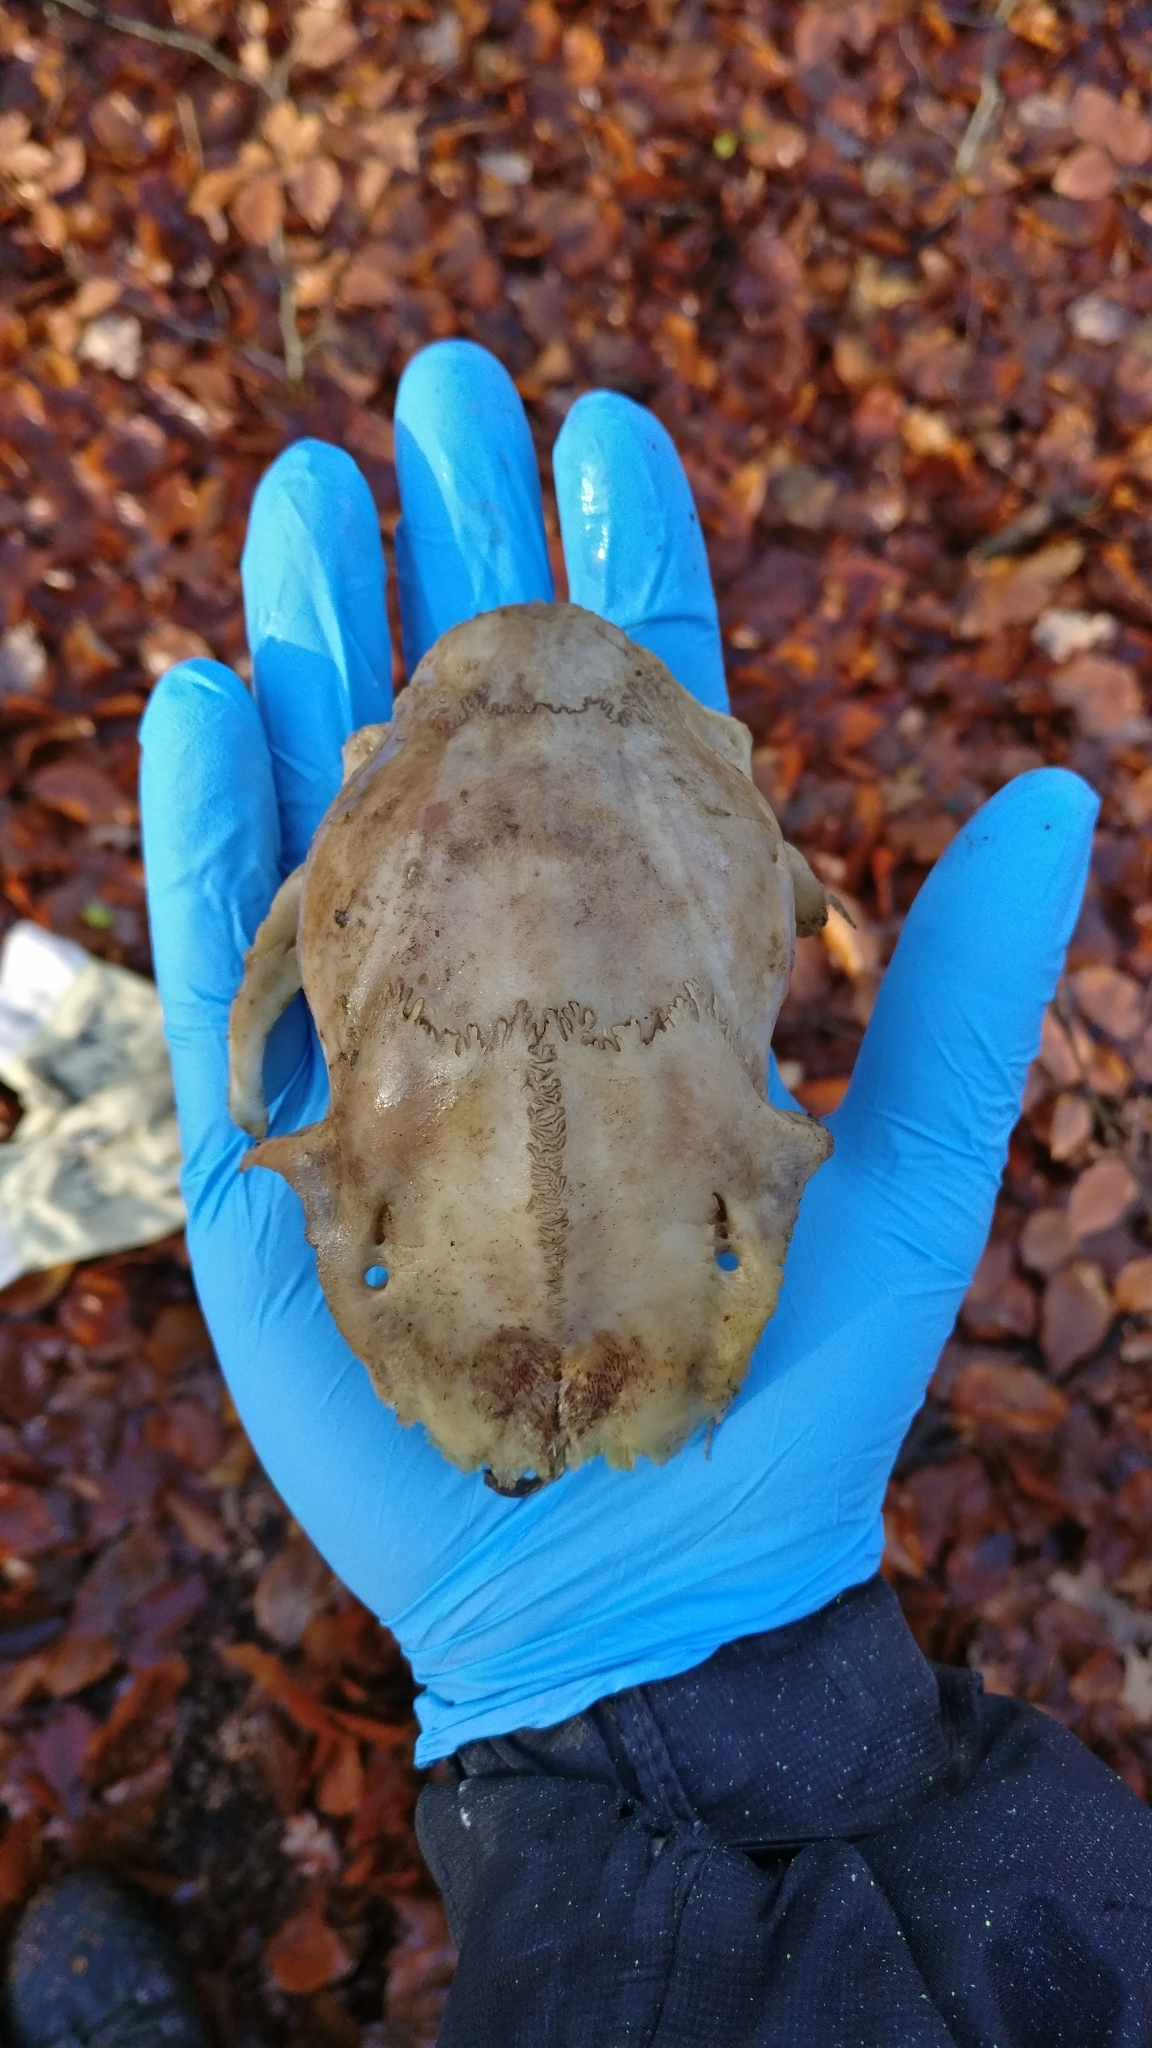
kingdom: Animalia
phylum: Chordata
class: Mammalia
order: Artiodactyla
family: Cervidae
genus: Capreolus
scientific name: Capreolus capreolus
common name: Western roe deer
